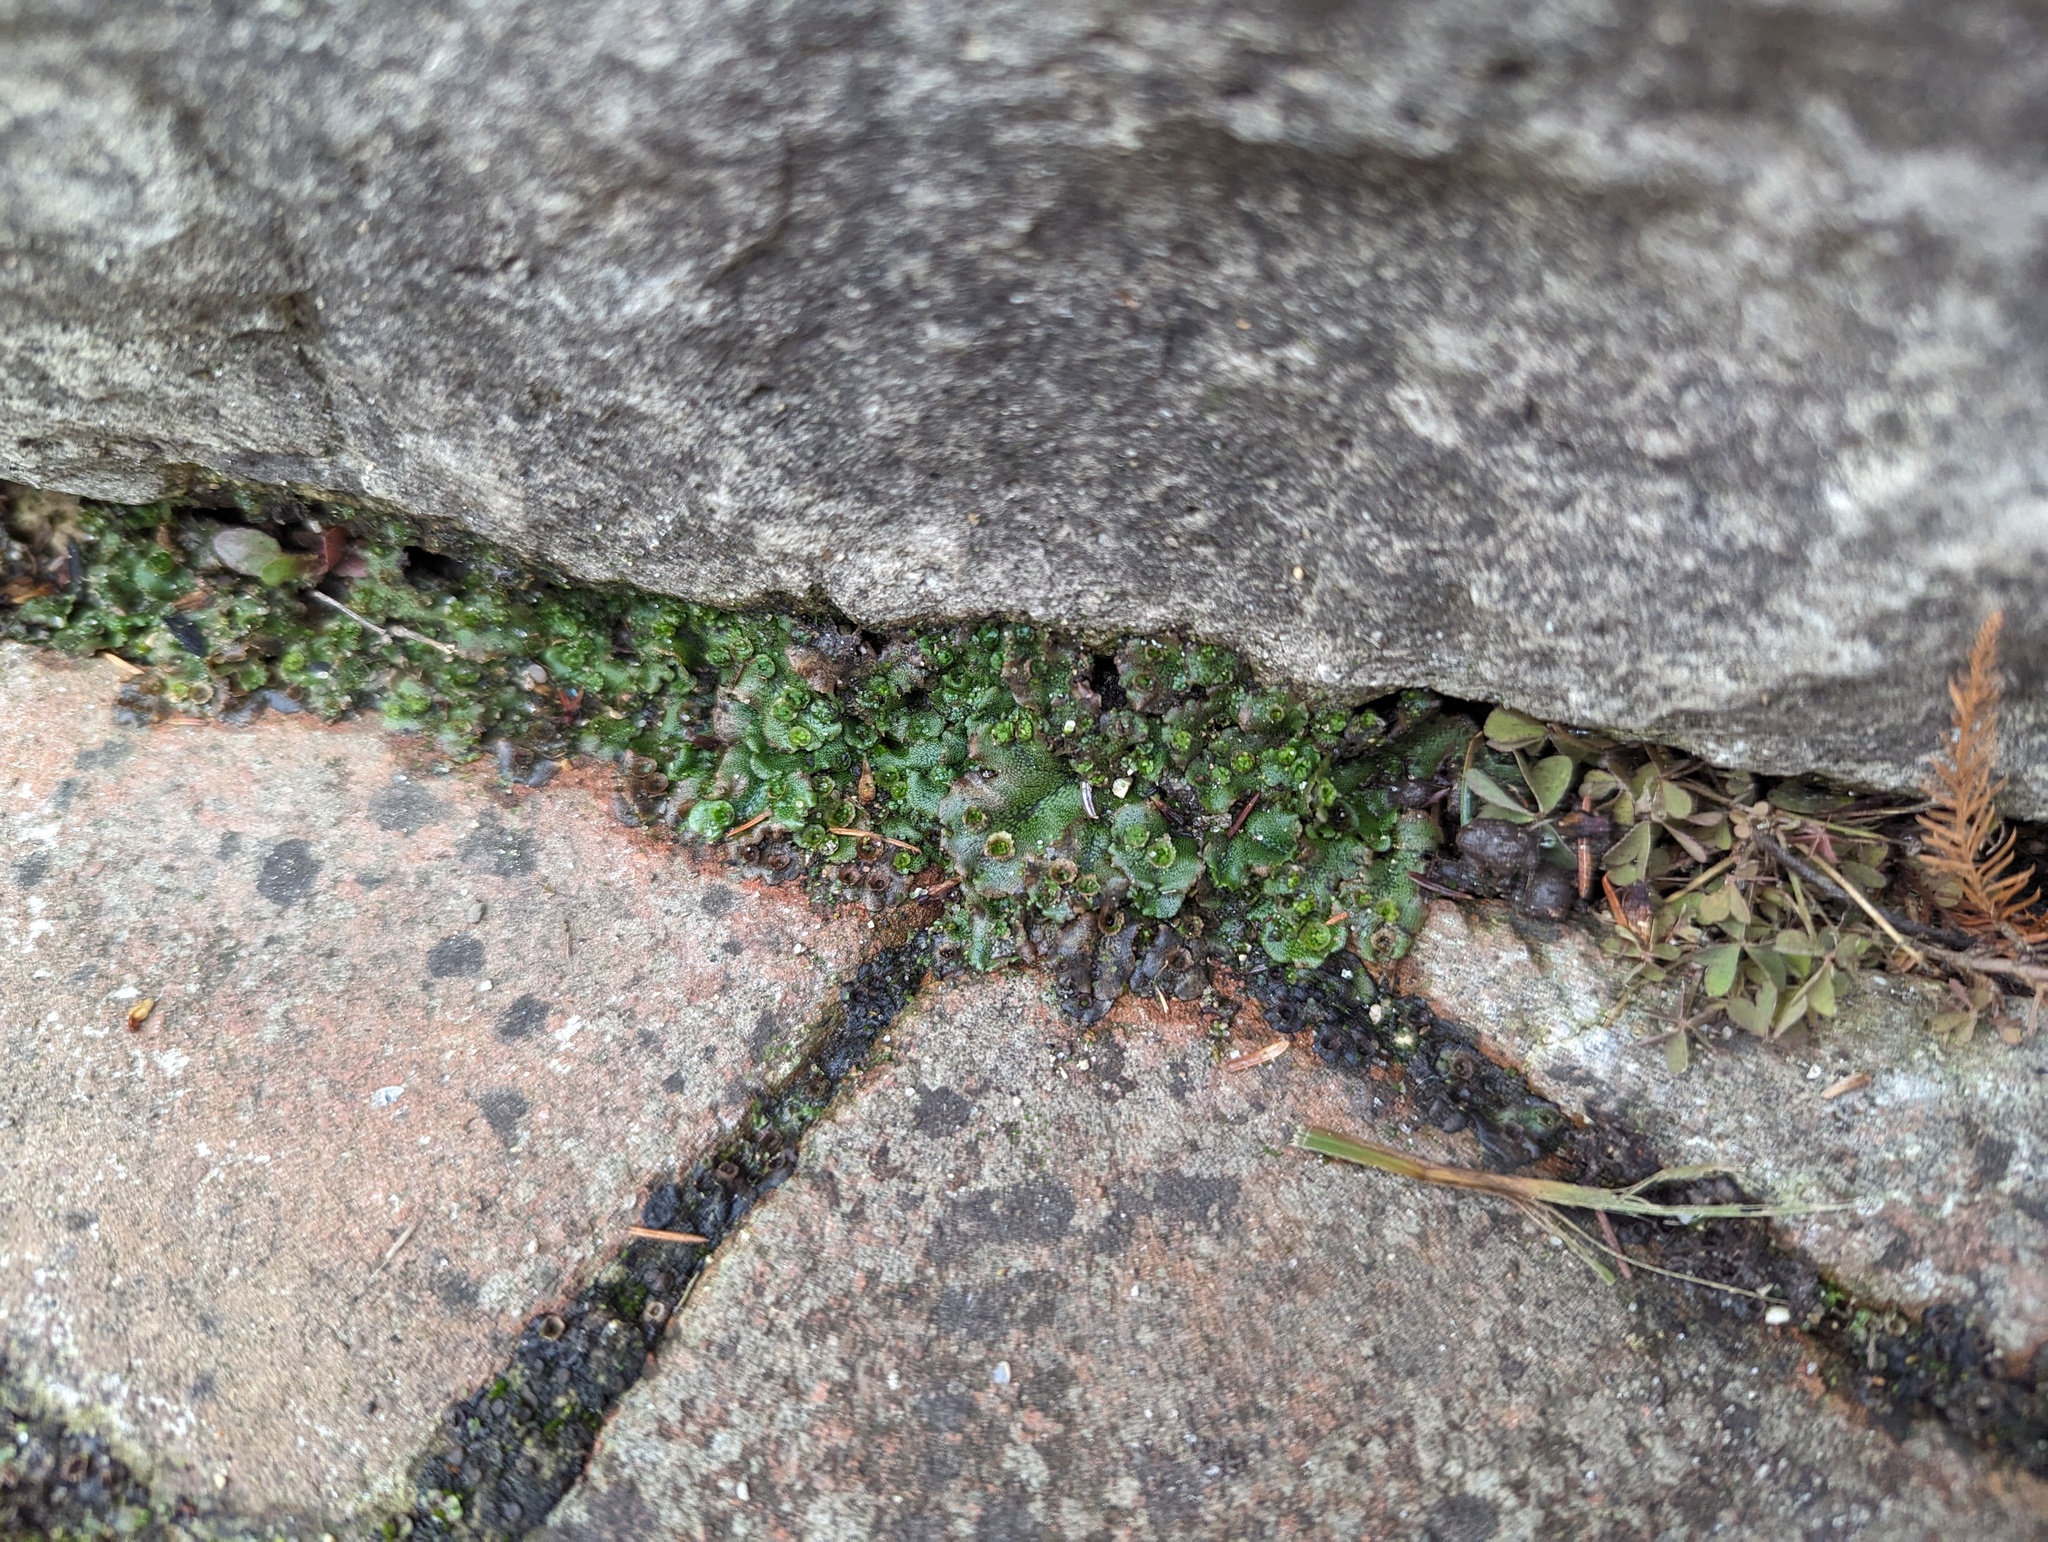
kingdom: Plantae
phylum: Marchantiophyta
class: Marchantiopsida
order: Marchantiales
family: Marchantiaceae
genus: Marchantia
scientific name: Marchantia polymorpha
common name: Common liverwort
